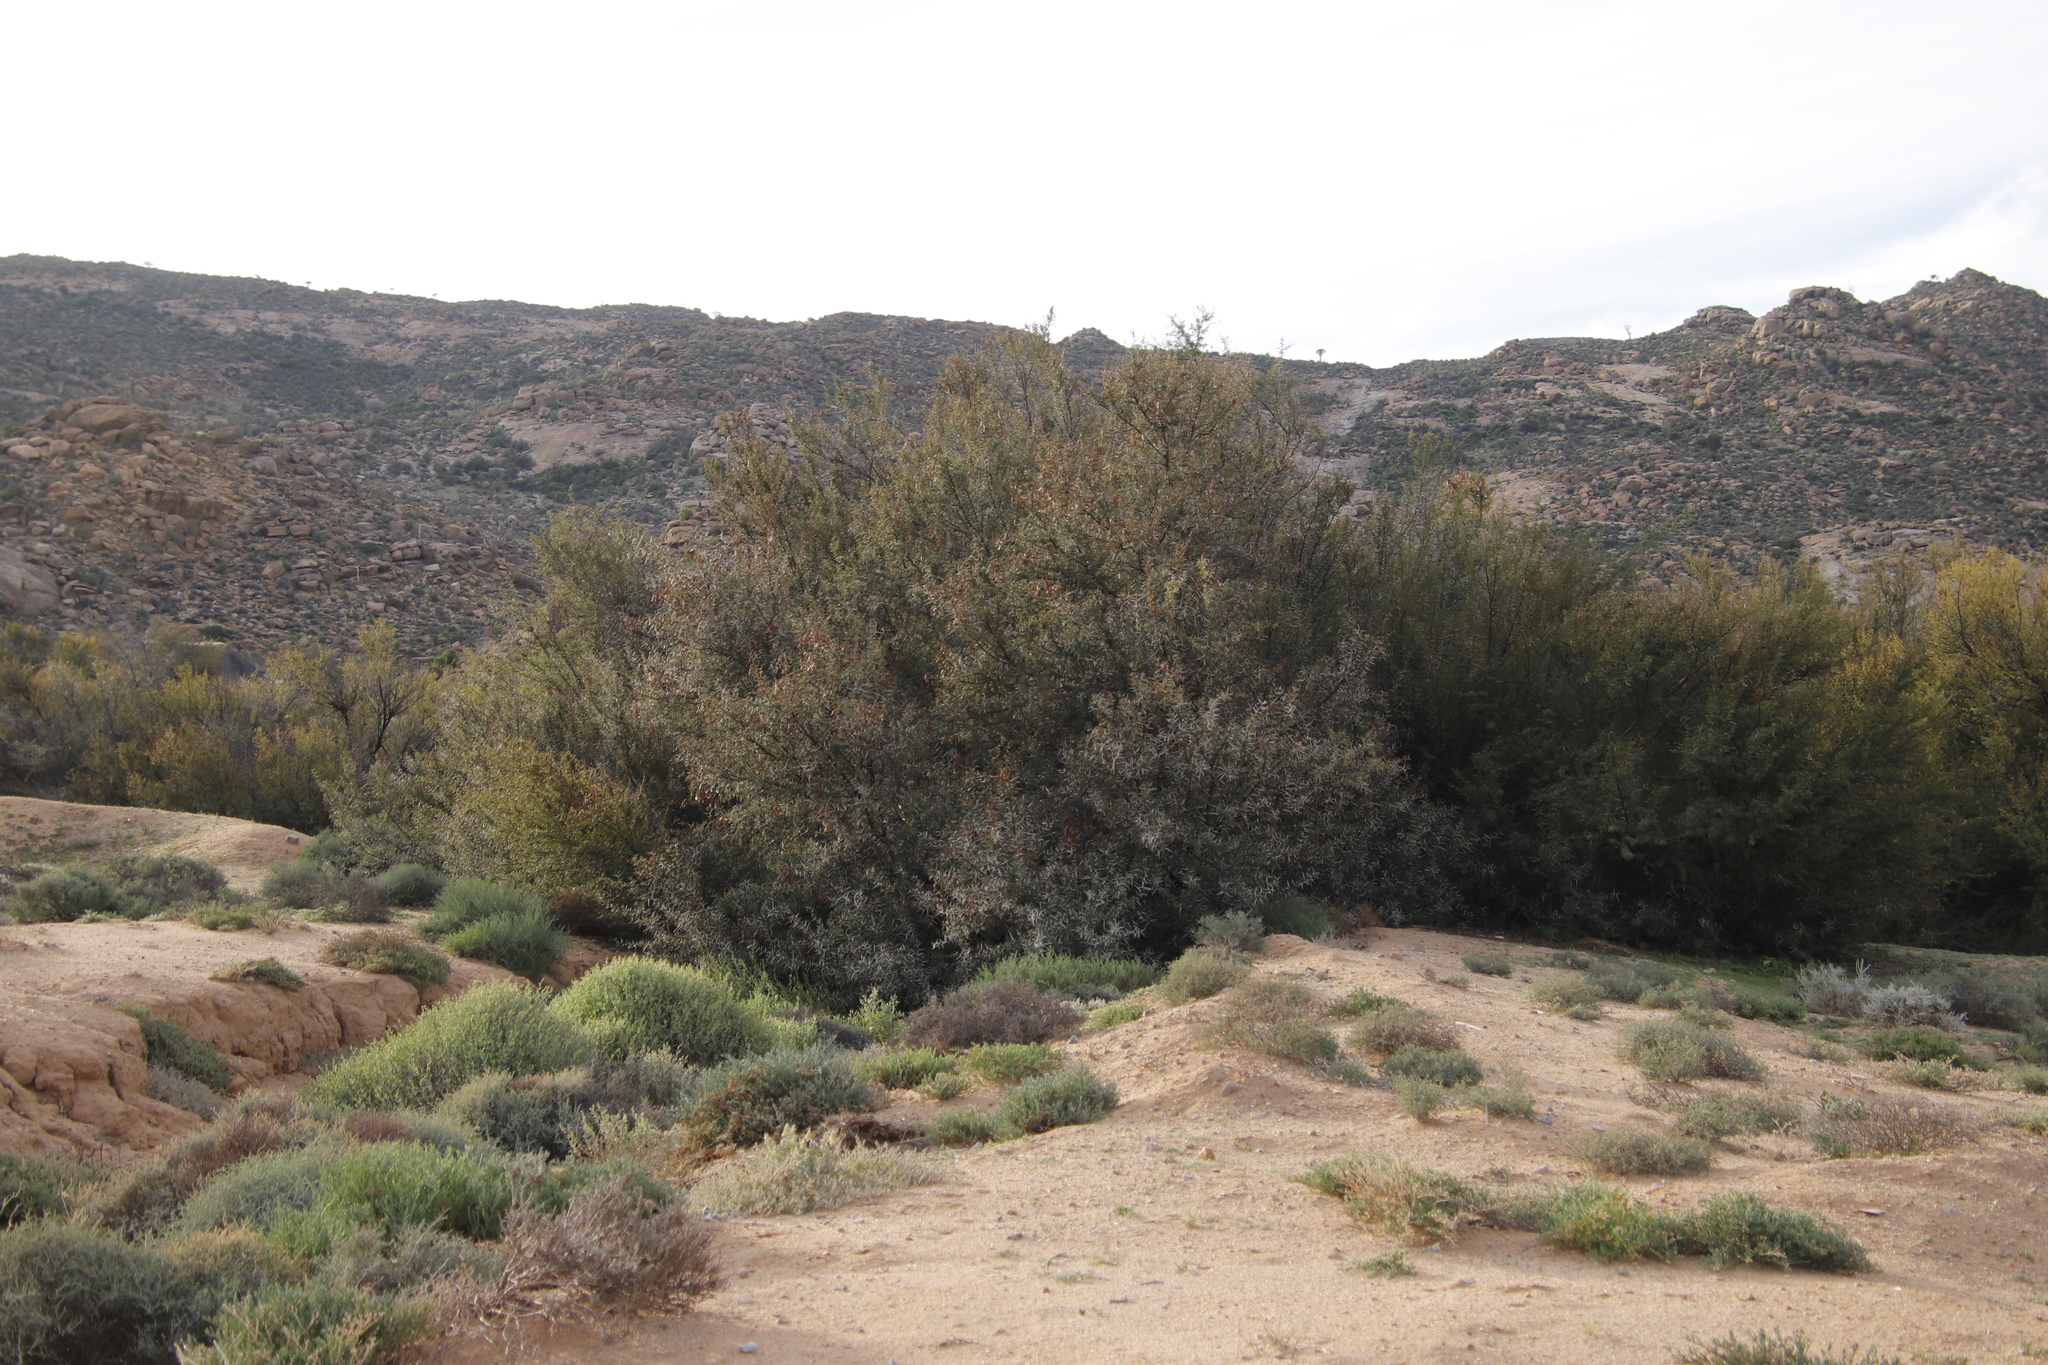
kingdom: Plantae
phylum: Tracheophyta
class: Magnoliopsida
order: Fabales
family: Fabaceae
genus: Vachellia
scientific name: Vachellia karroo
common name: Sweet thorn
